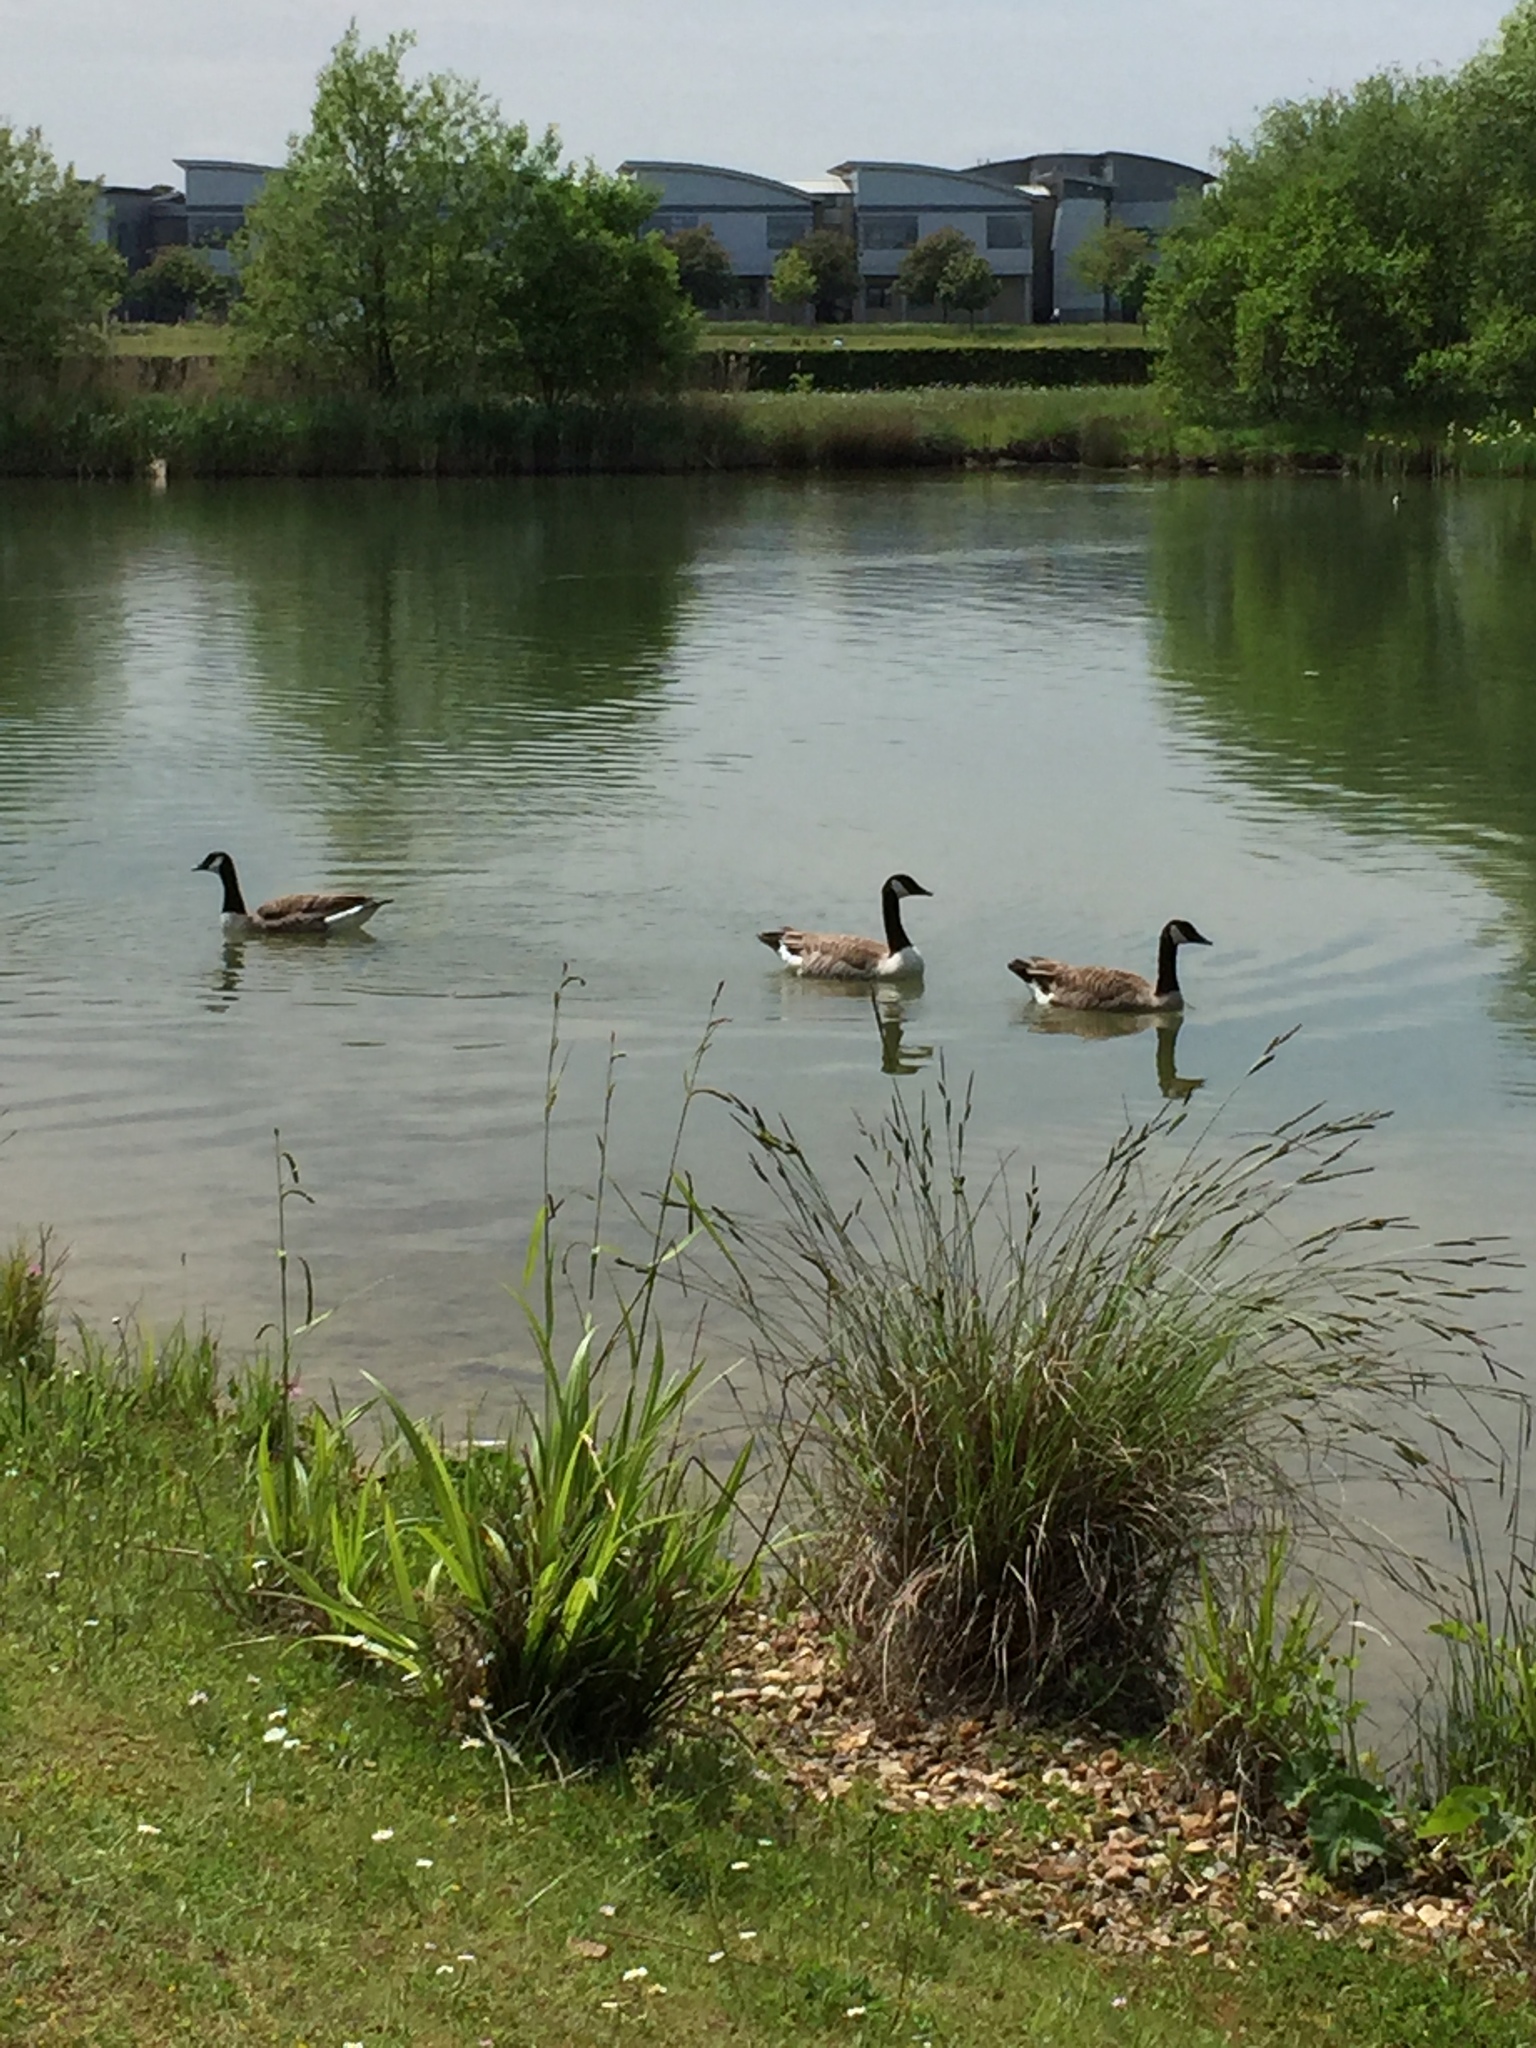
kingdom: Animalia
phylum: Chordata
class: Aves
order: Anseriformes
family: Anatidae
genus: Branta
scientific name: Branta canadensis
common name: Canada goose
